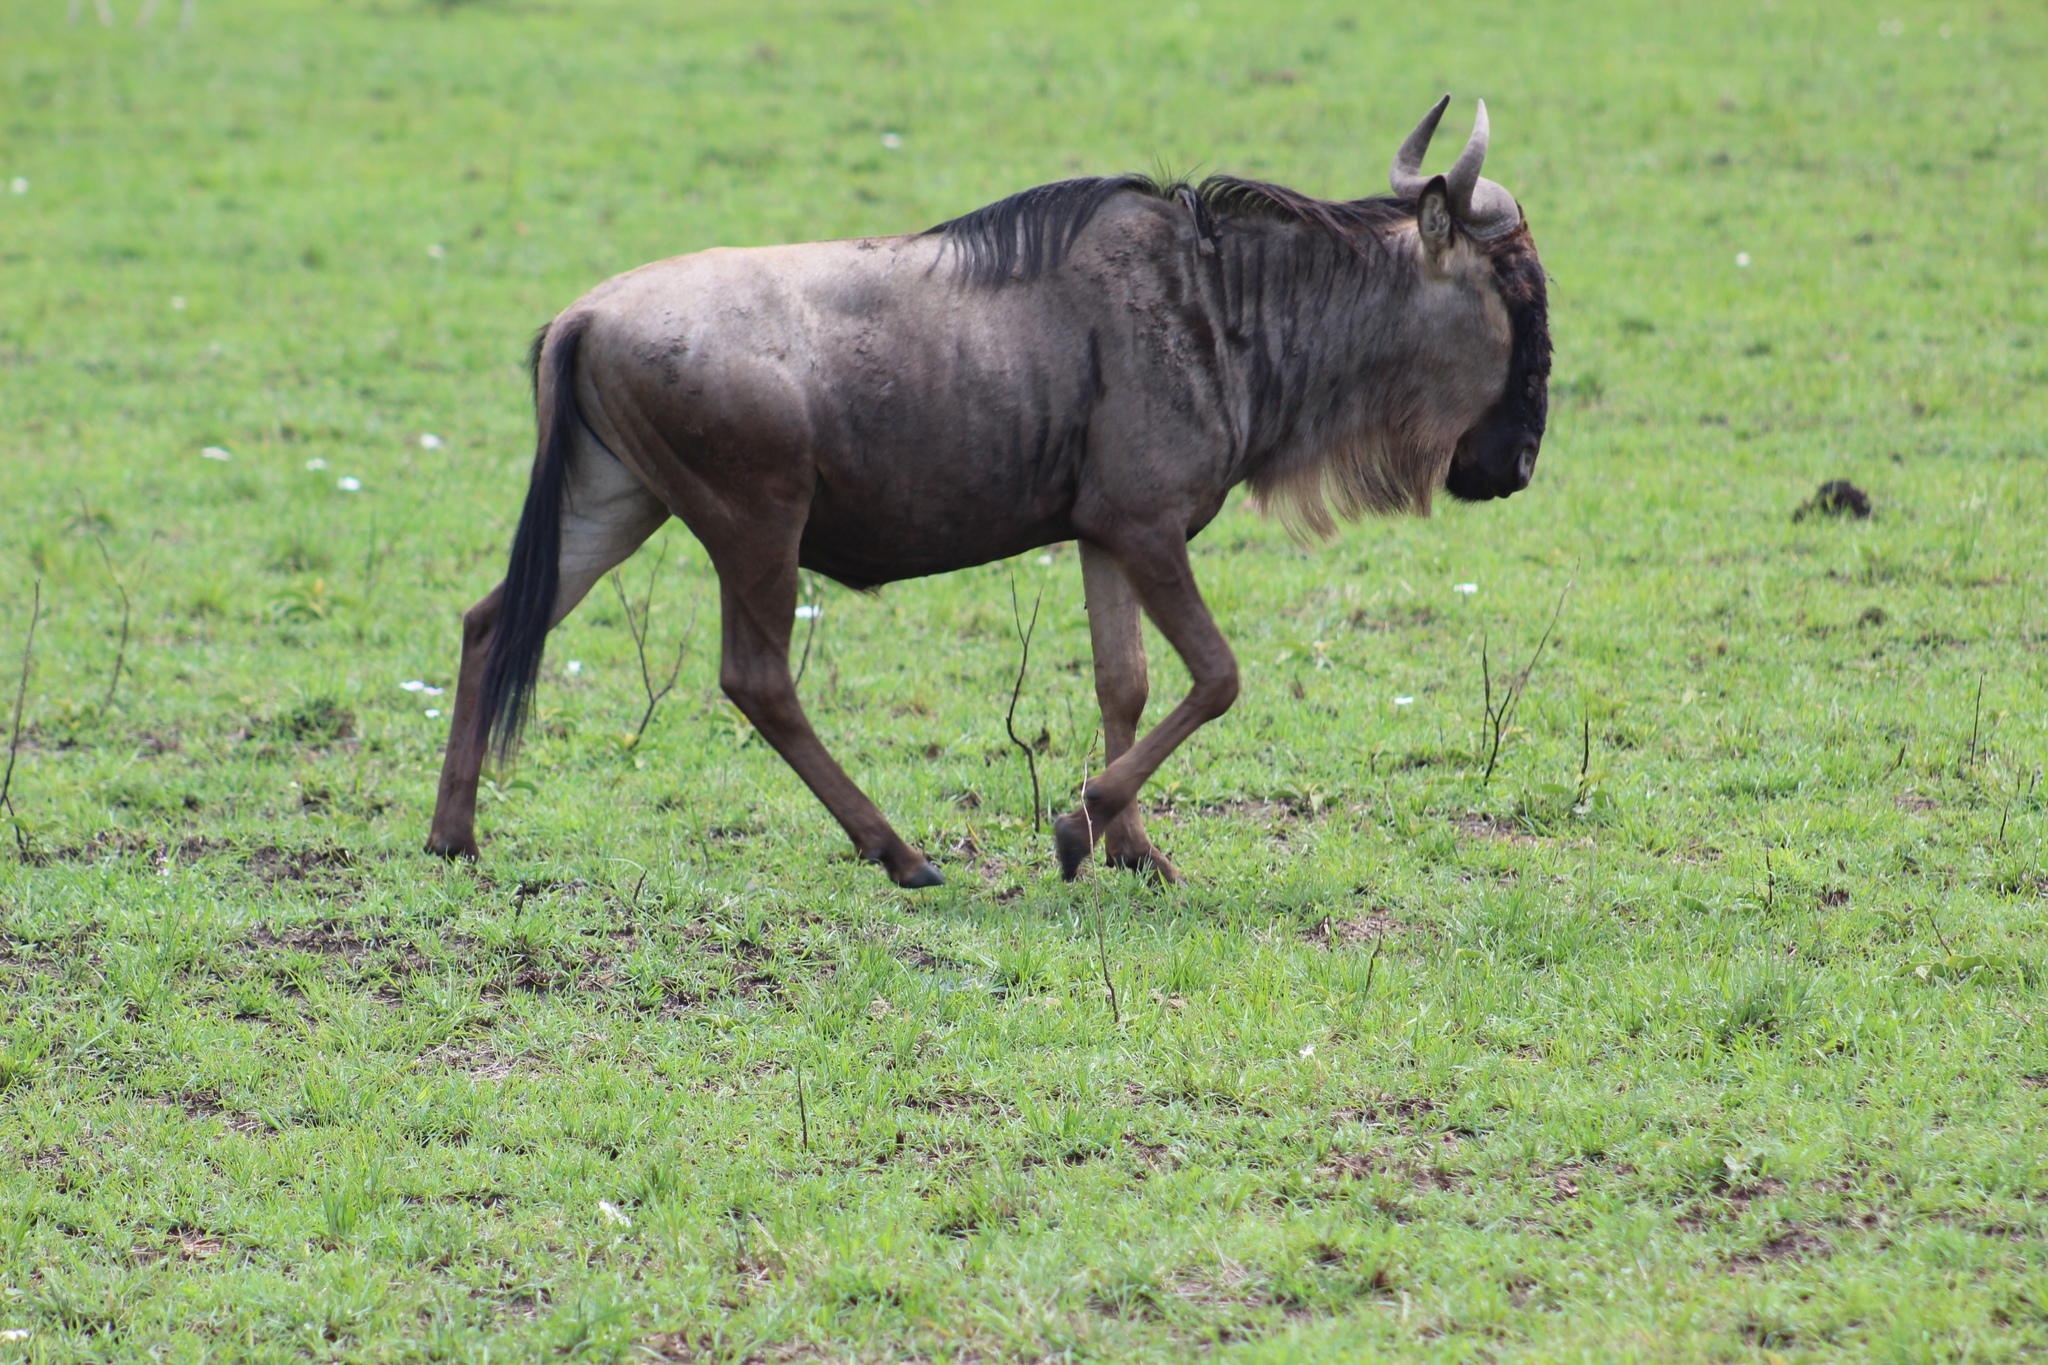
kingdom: Animalia
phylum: Chordata
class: Mammalia
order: Artiodactyla
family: Bovidae
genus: Connochaetes
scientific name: Connochaetes taurinus
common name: Blue wildebeest
